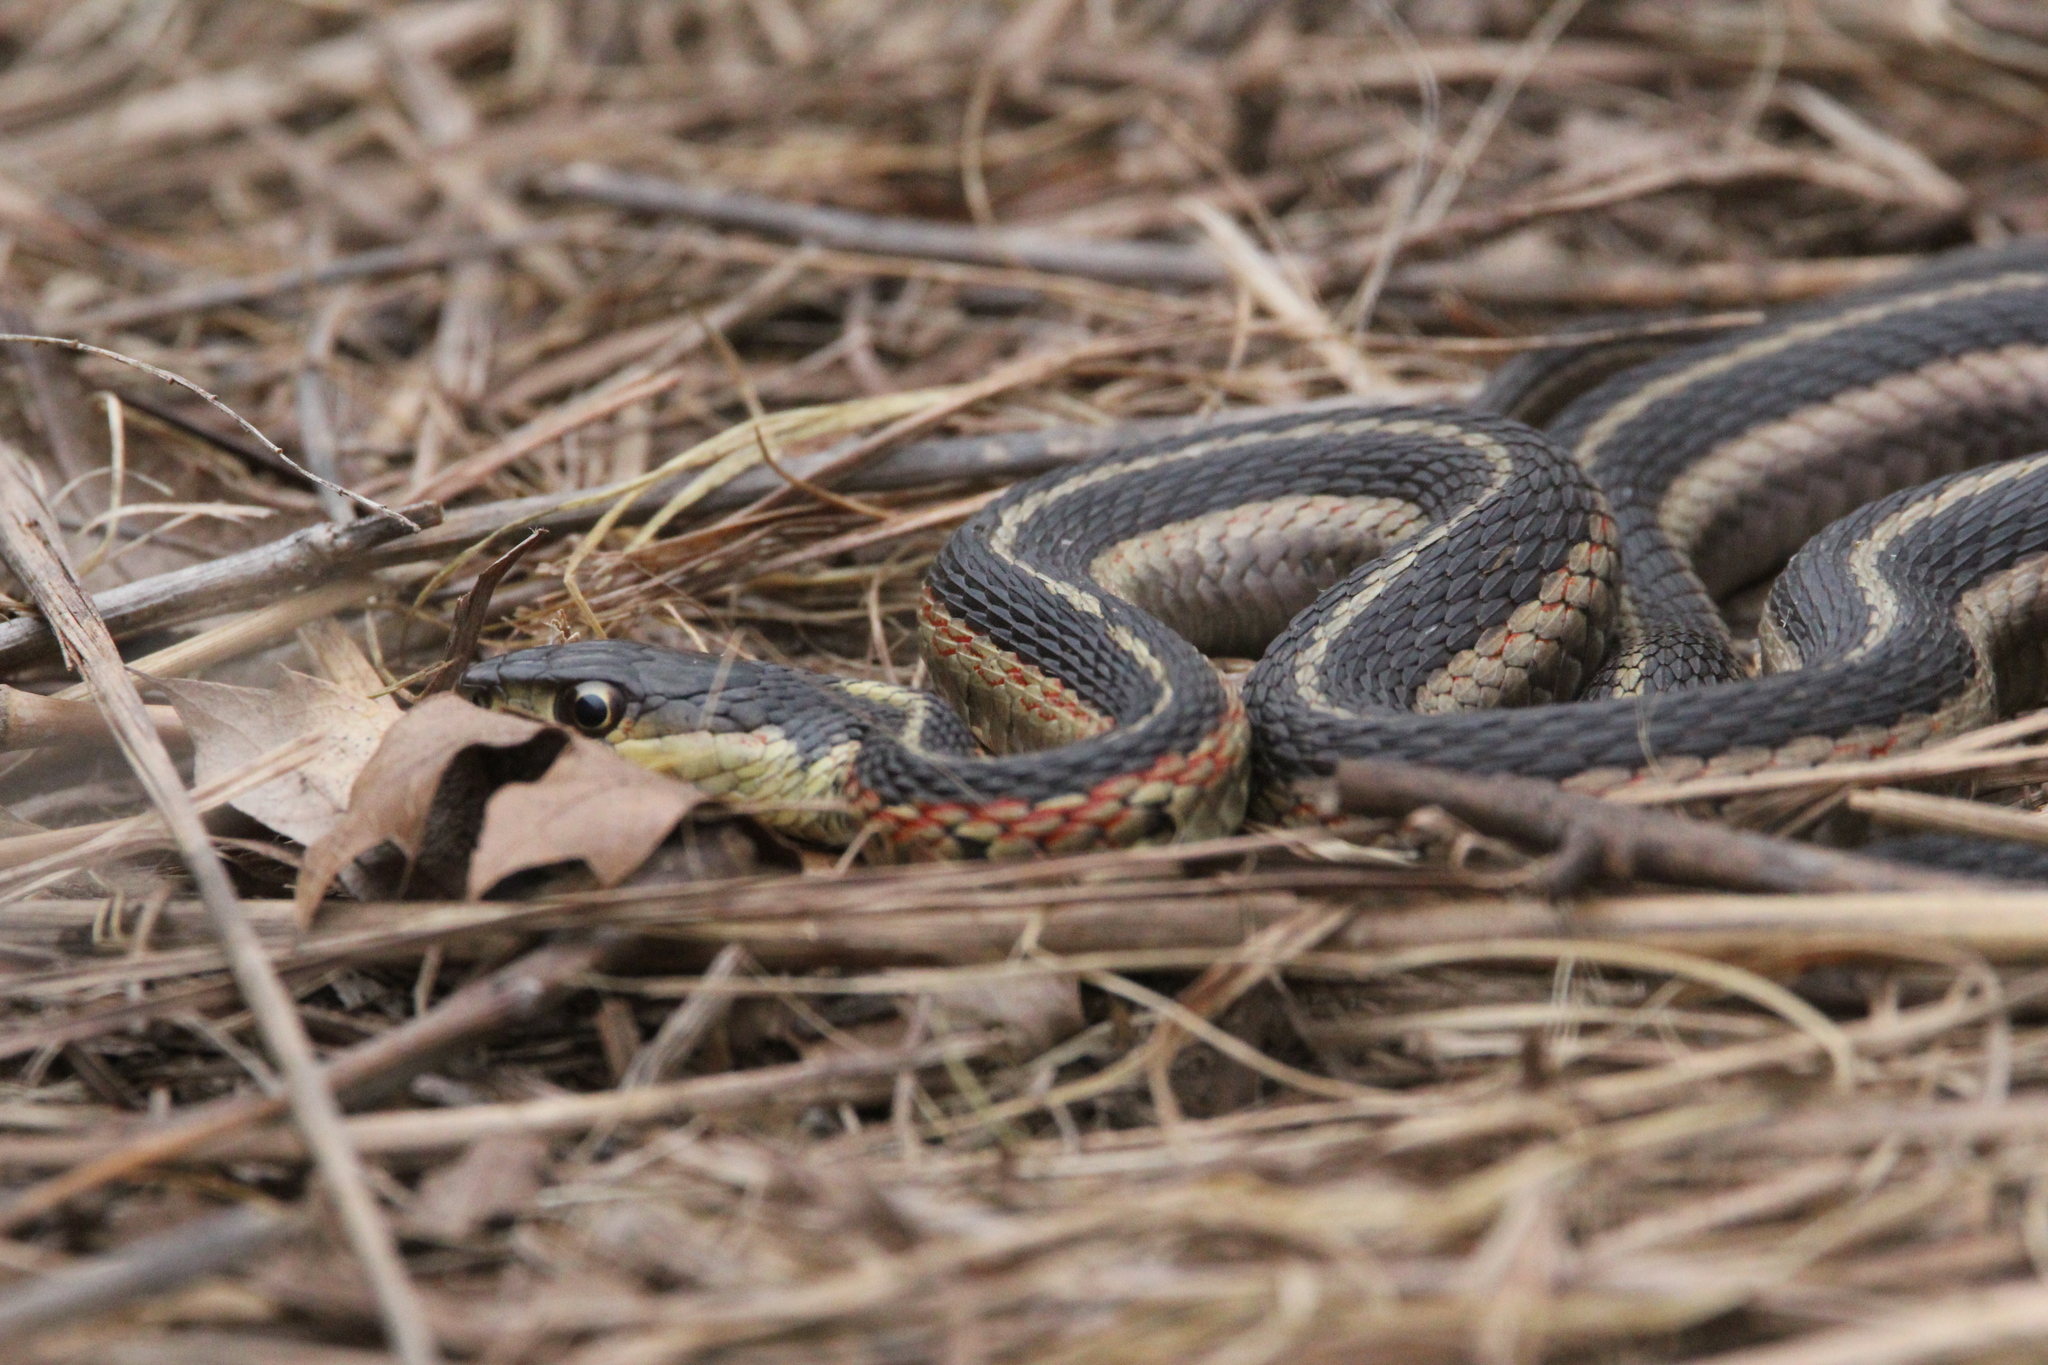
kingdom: Animalia
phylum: Chordata
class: Squamata
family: Colubridae
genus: Thamnophis
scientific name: Thamnophis sirtalis
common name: Common garter snake
